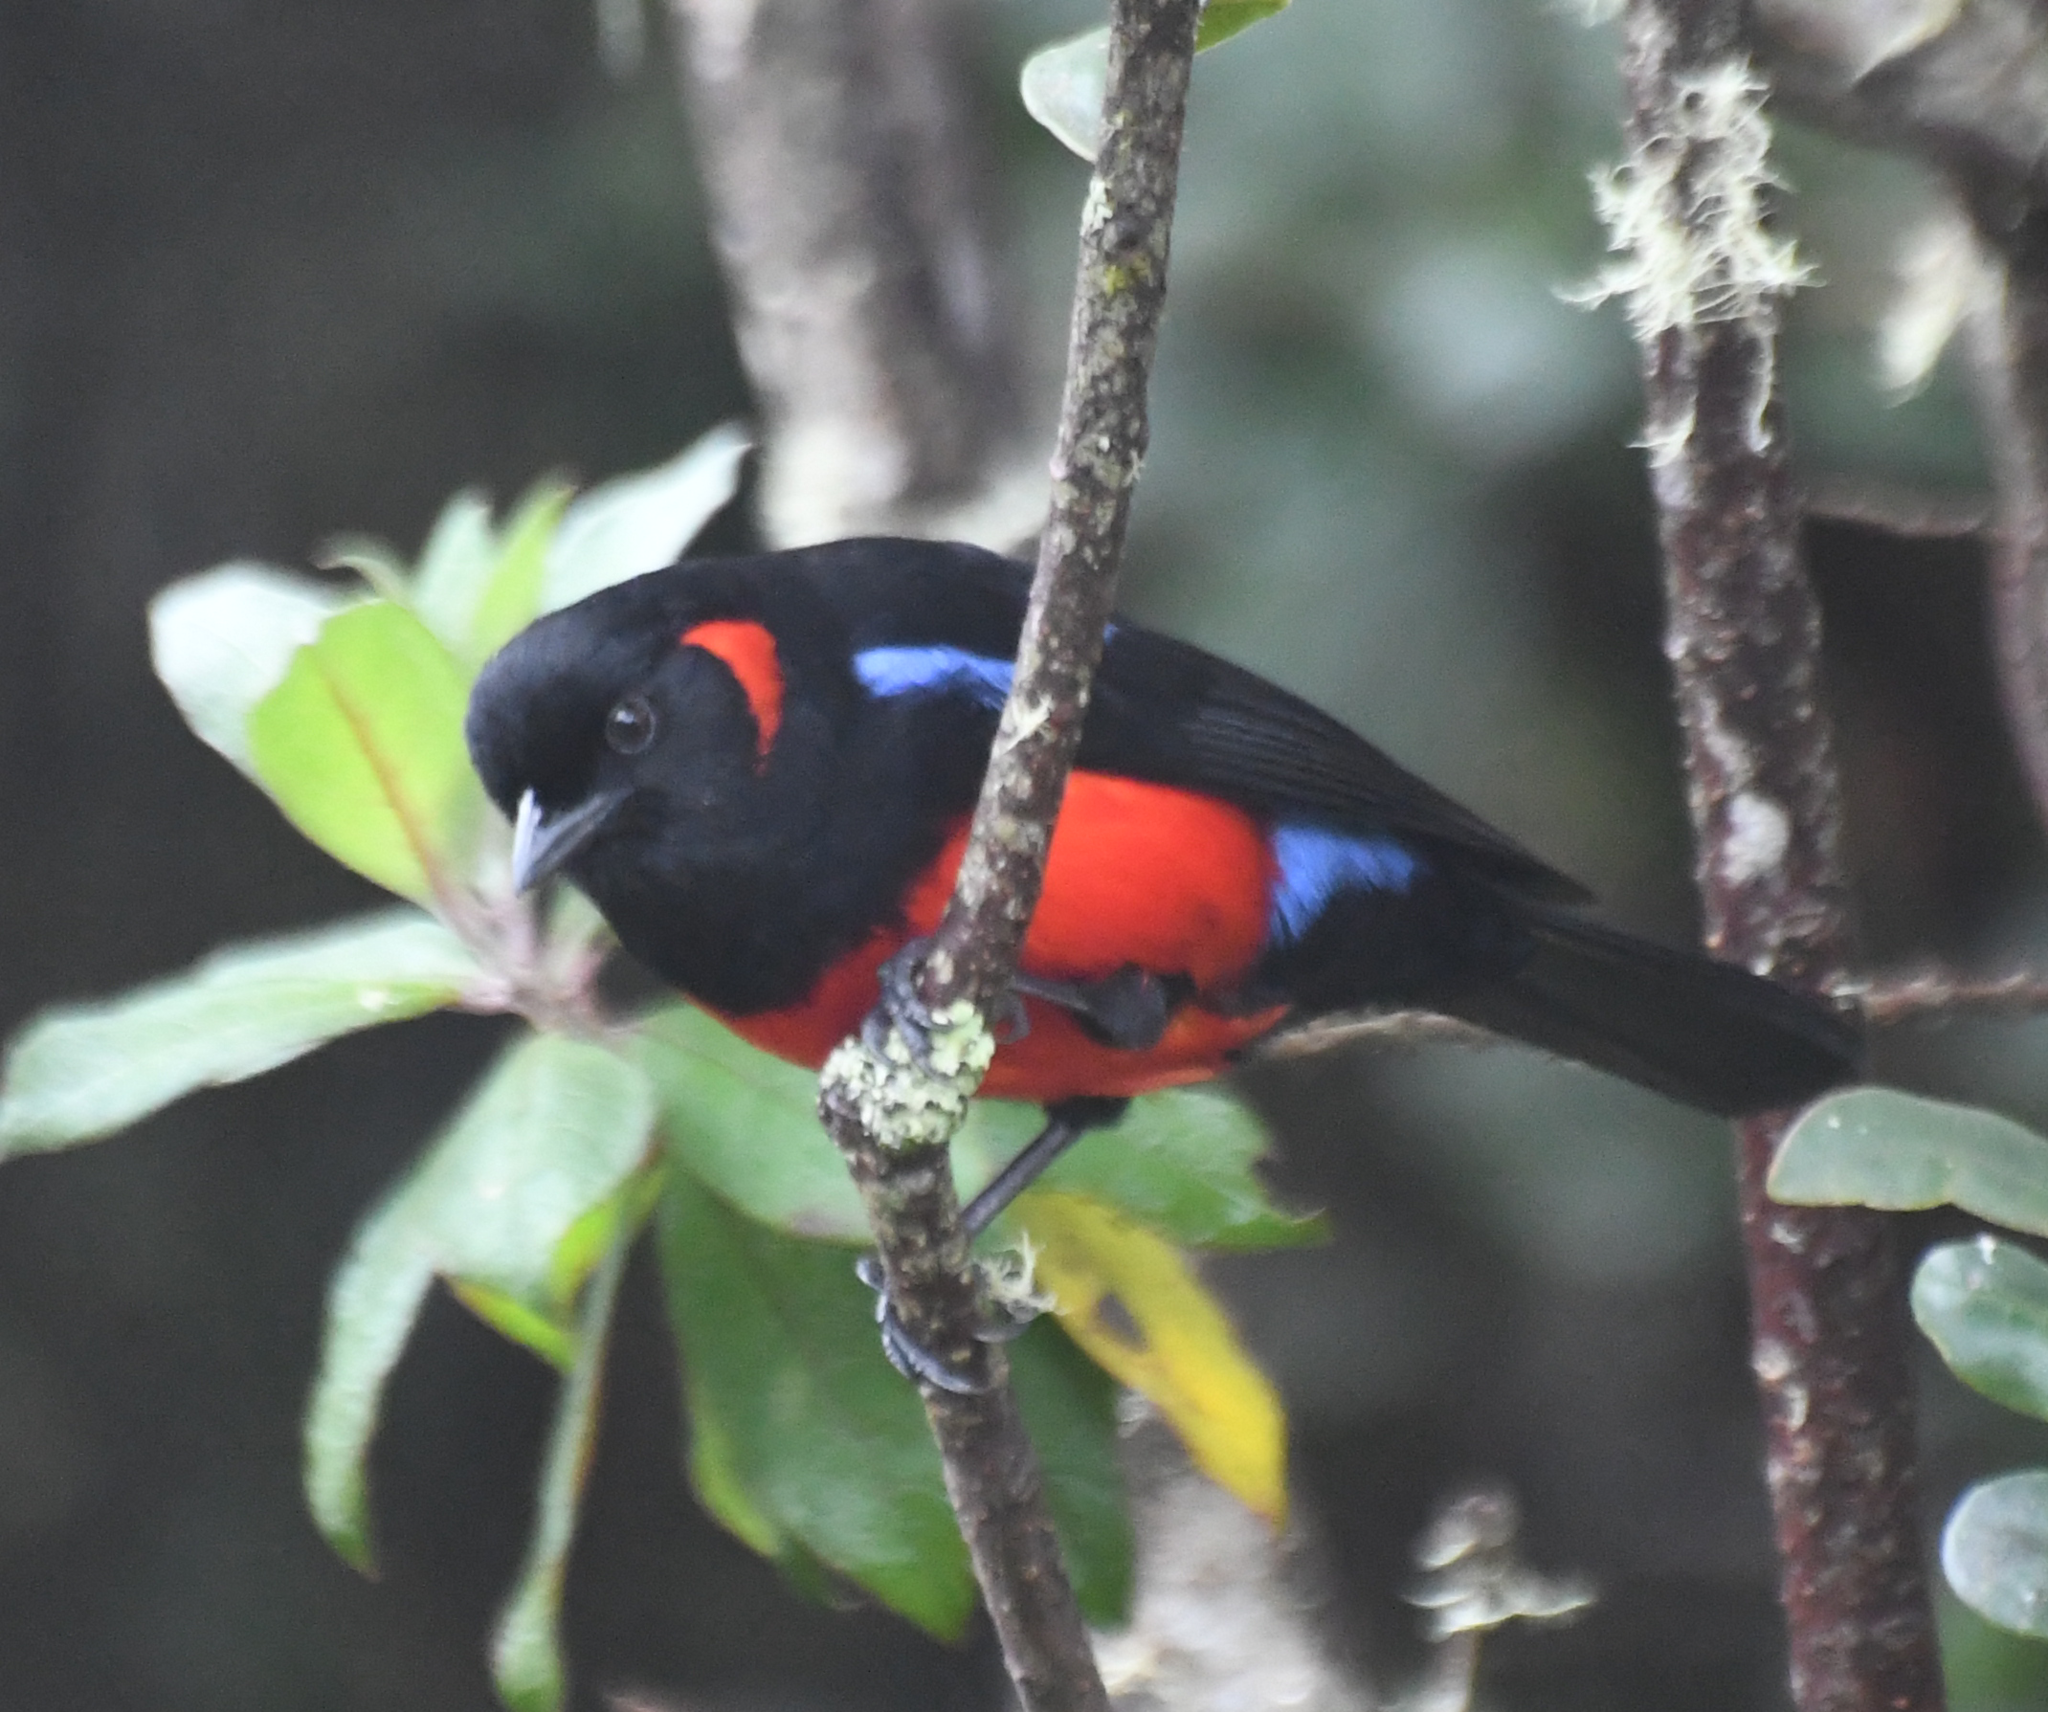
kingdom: Animalia
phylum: Chordata
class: Aves
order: Passeriformes
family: Thraupidae
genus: Anisognathus
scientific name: Anisognathus igniventris
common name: Scarlet-bellied mountain tanager
